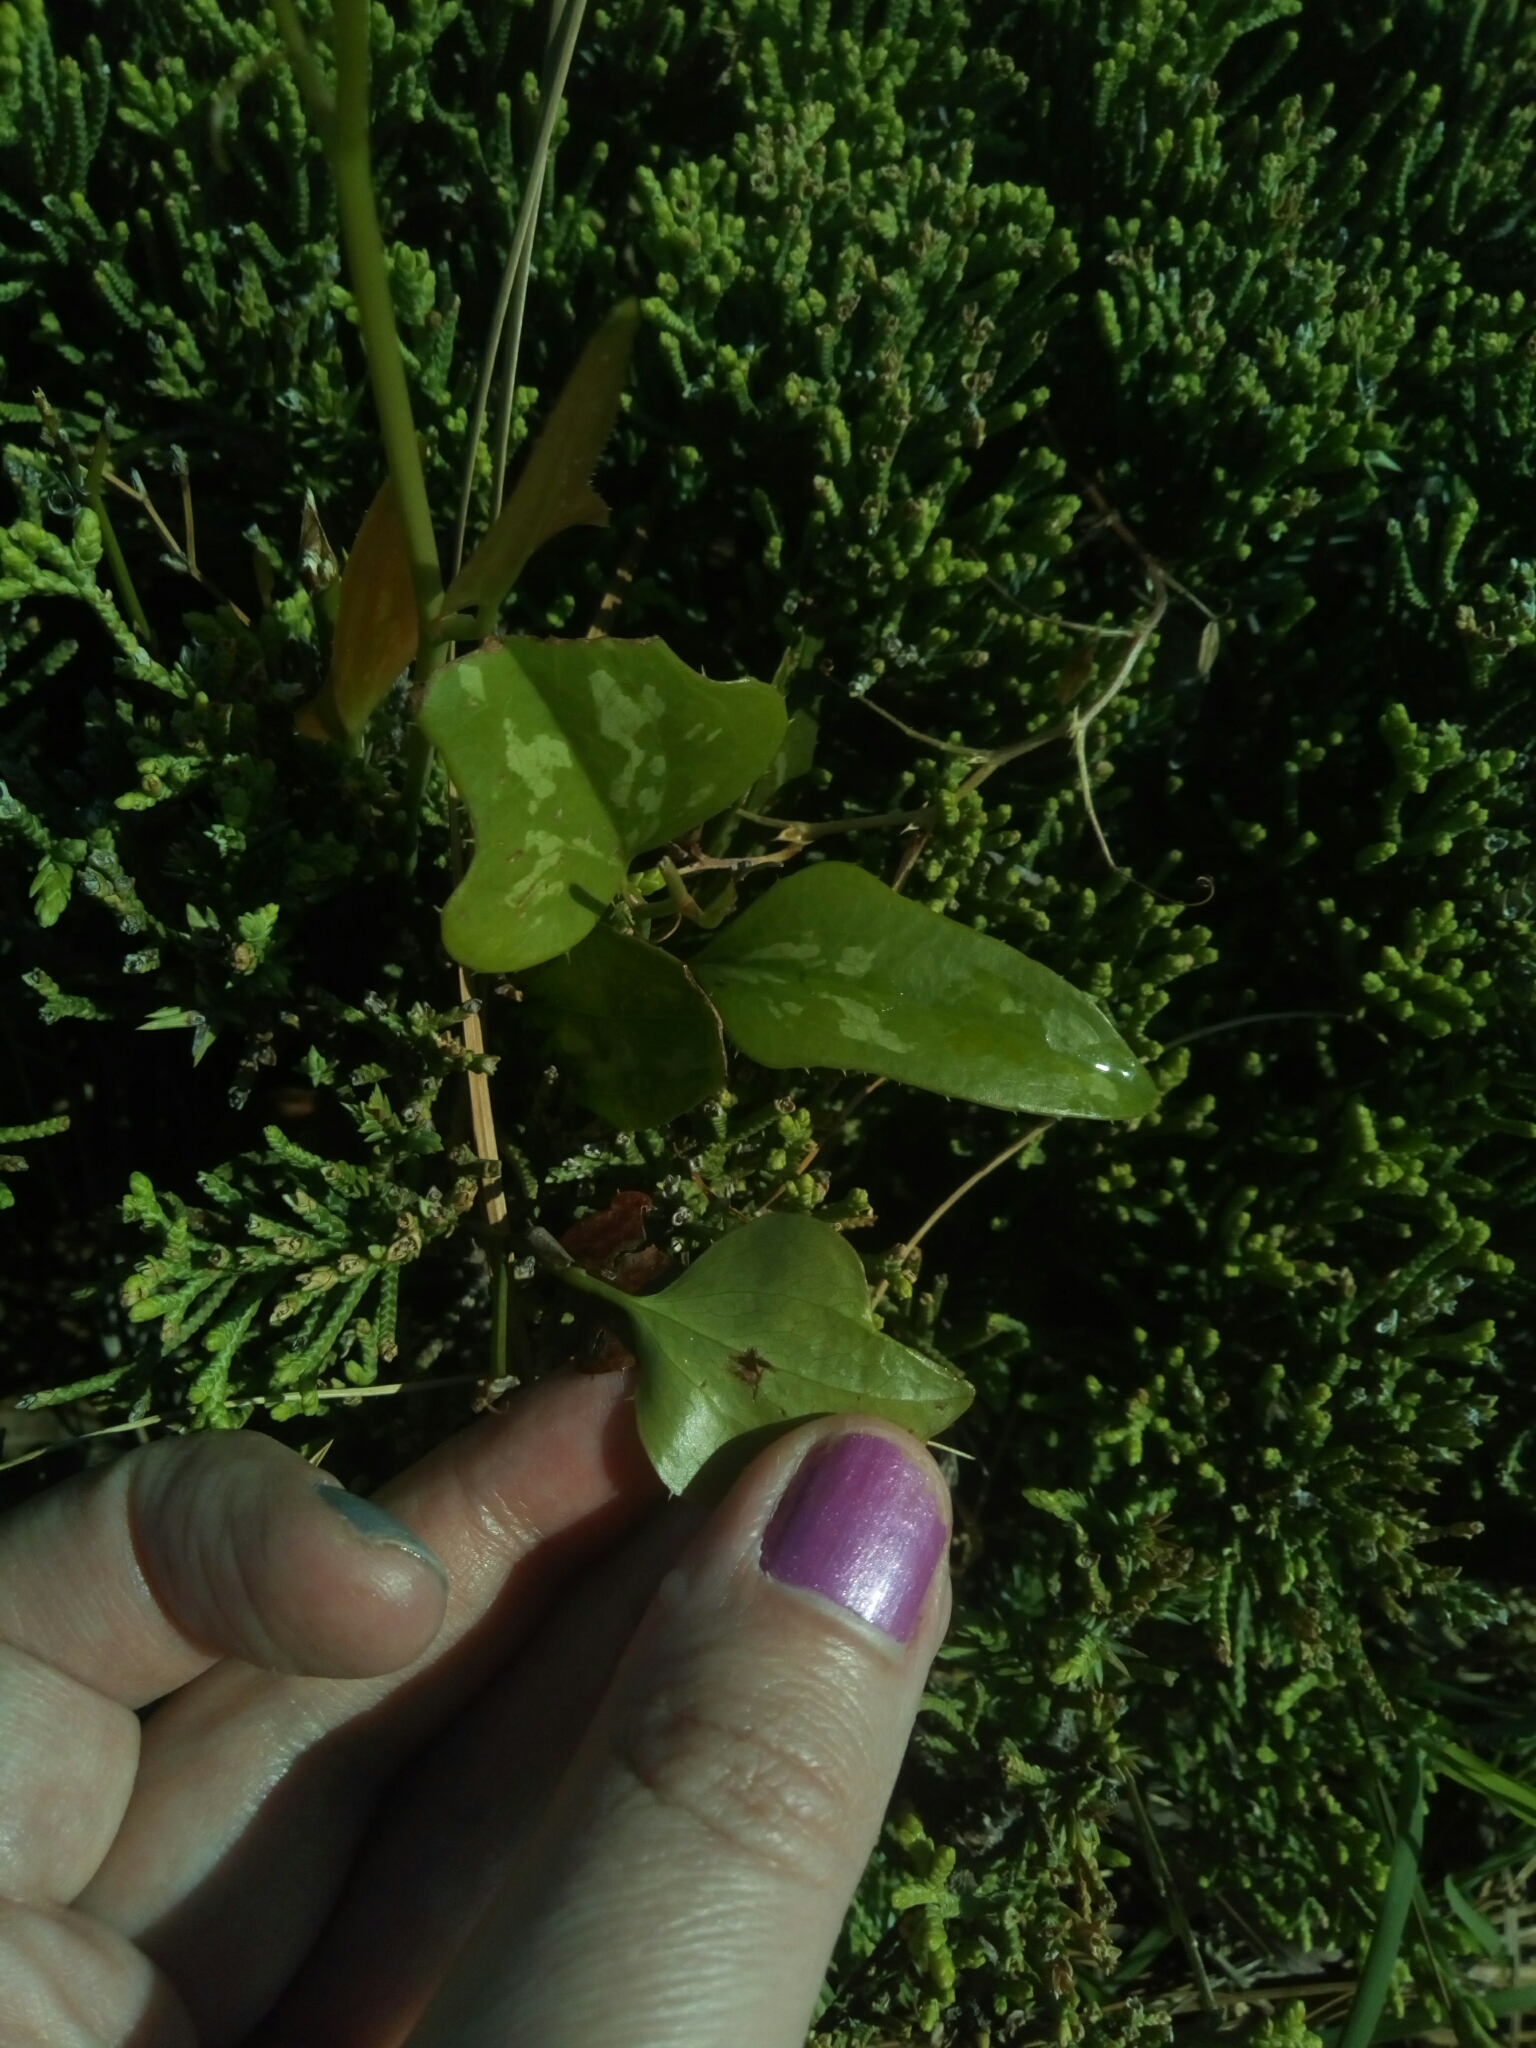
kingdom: Plantae
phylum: Tracheophyta
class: Liliopsida
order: Liliales
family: Smilacaceae
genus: Smilax
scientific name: Smilax bona-nox
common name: Catbrier
